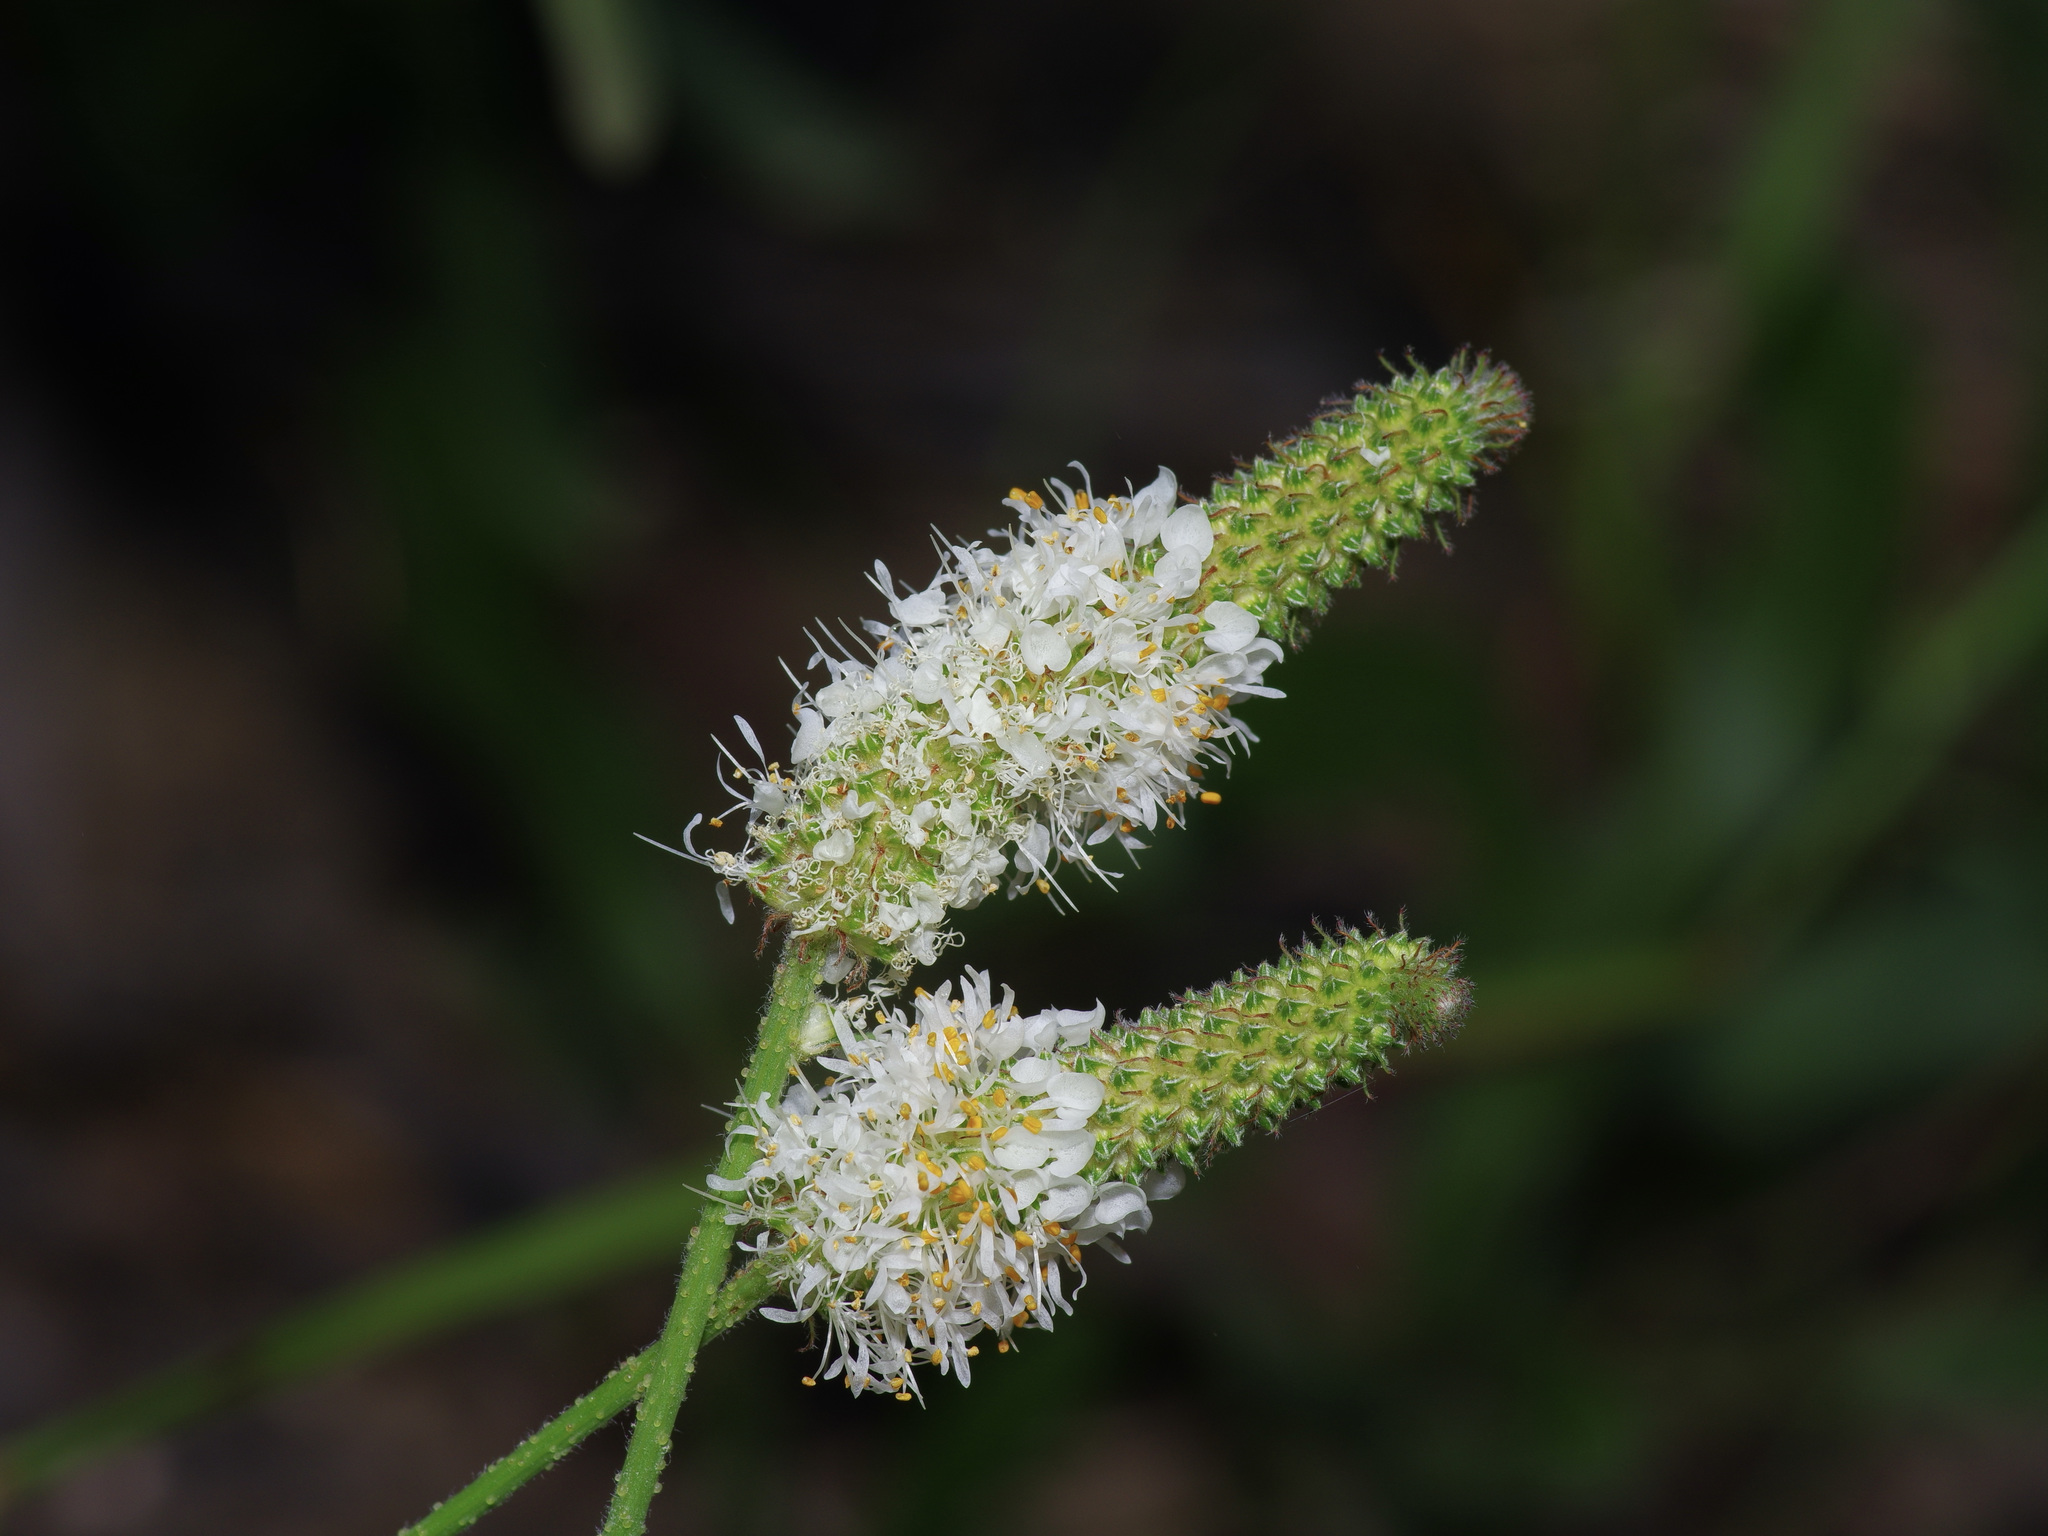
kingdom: Plantae
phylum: Tracheophyta
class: Magnoliopsida
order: Fabales
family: Fabaceae
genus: Dalea
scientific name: Dalea phleoides
